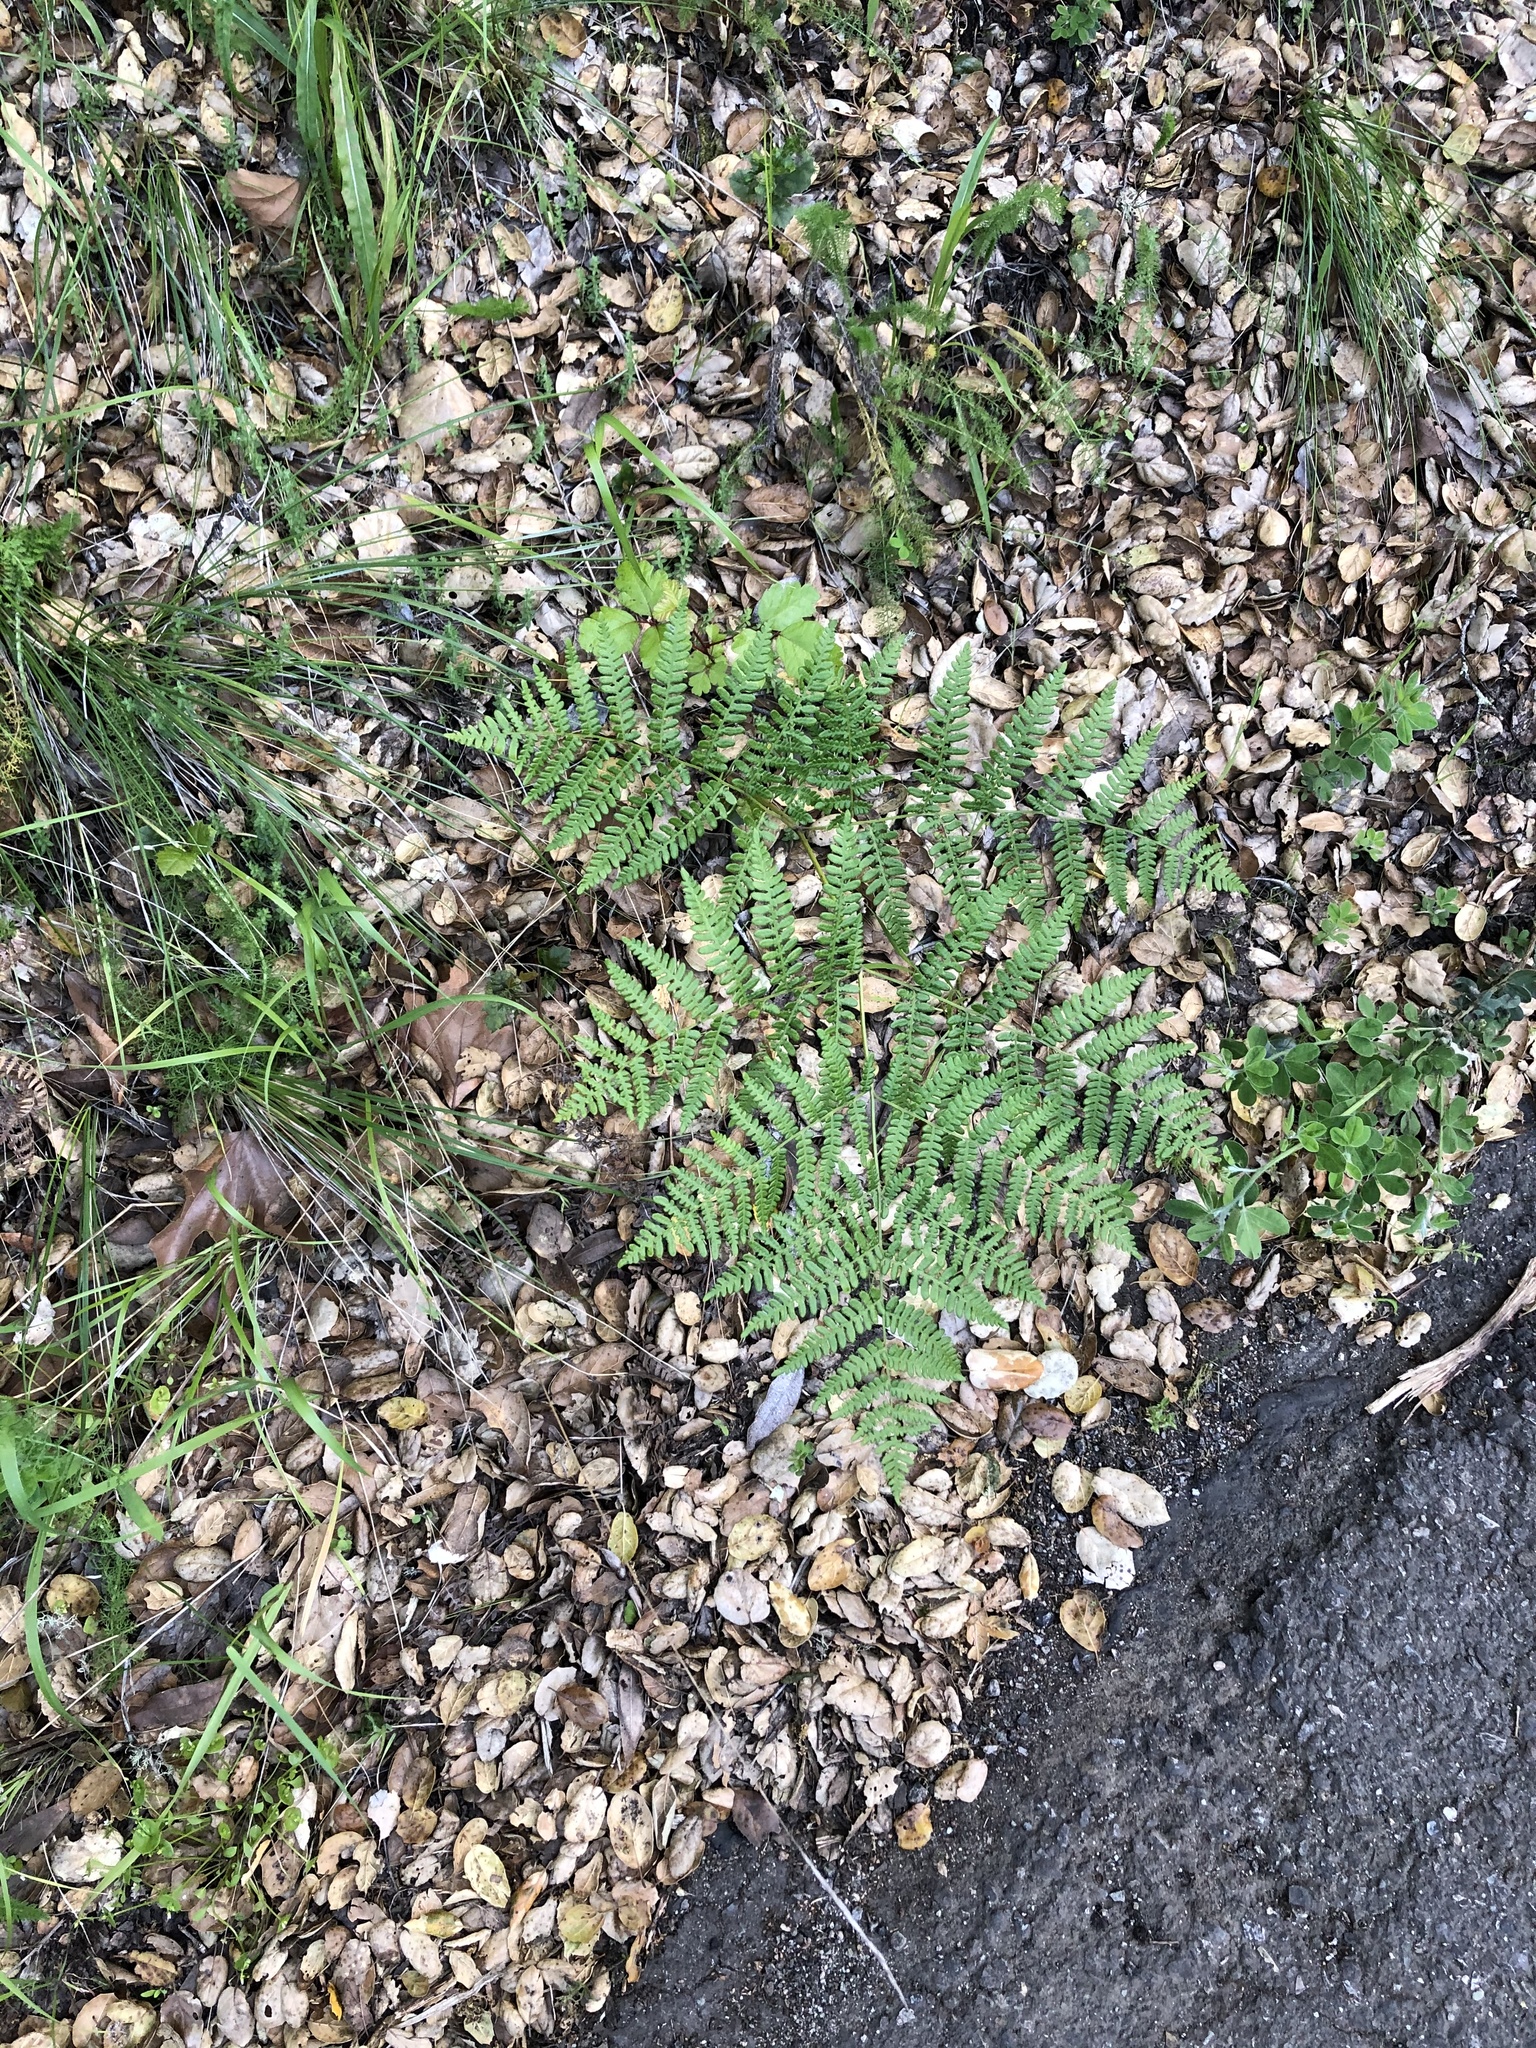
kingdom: Plantae
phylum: Tracheophyta
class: Polypodiopsida
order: Polypodiales
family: Dennstaedtiaceae
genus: Pteridium
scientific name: Pteridium aquilinum
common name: Bracken
